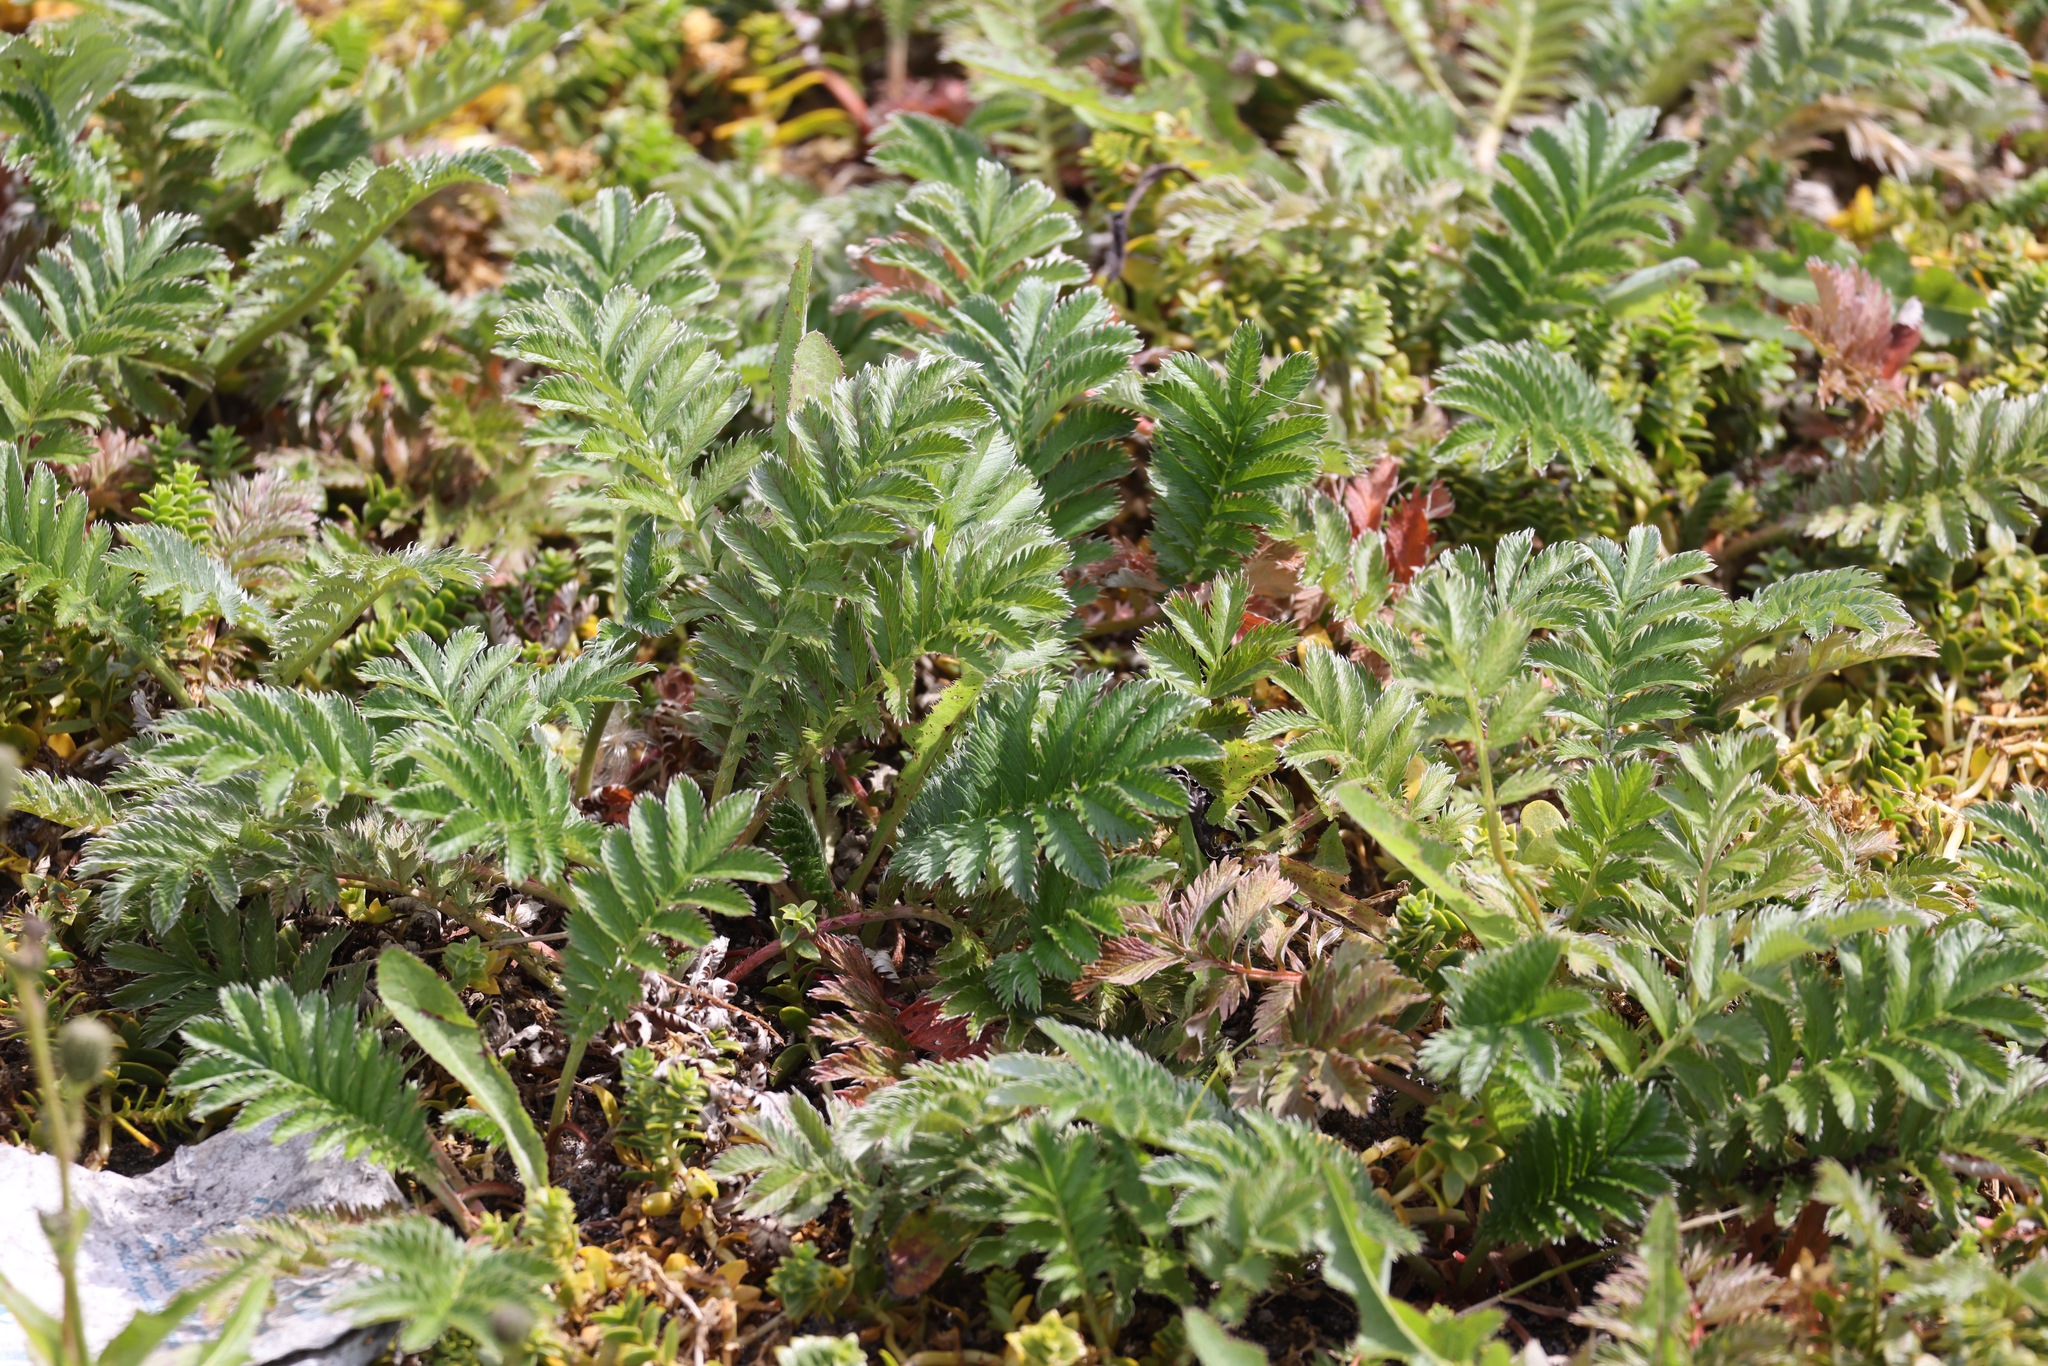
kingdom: Plantae
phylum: Tracheophyta
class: Magnoliopsida
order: Rosales
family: Rosaceae
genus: Argentina
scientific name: Argentina anserina
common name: Common silverweed
